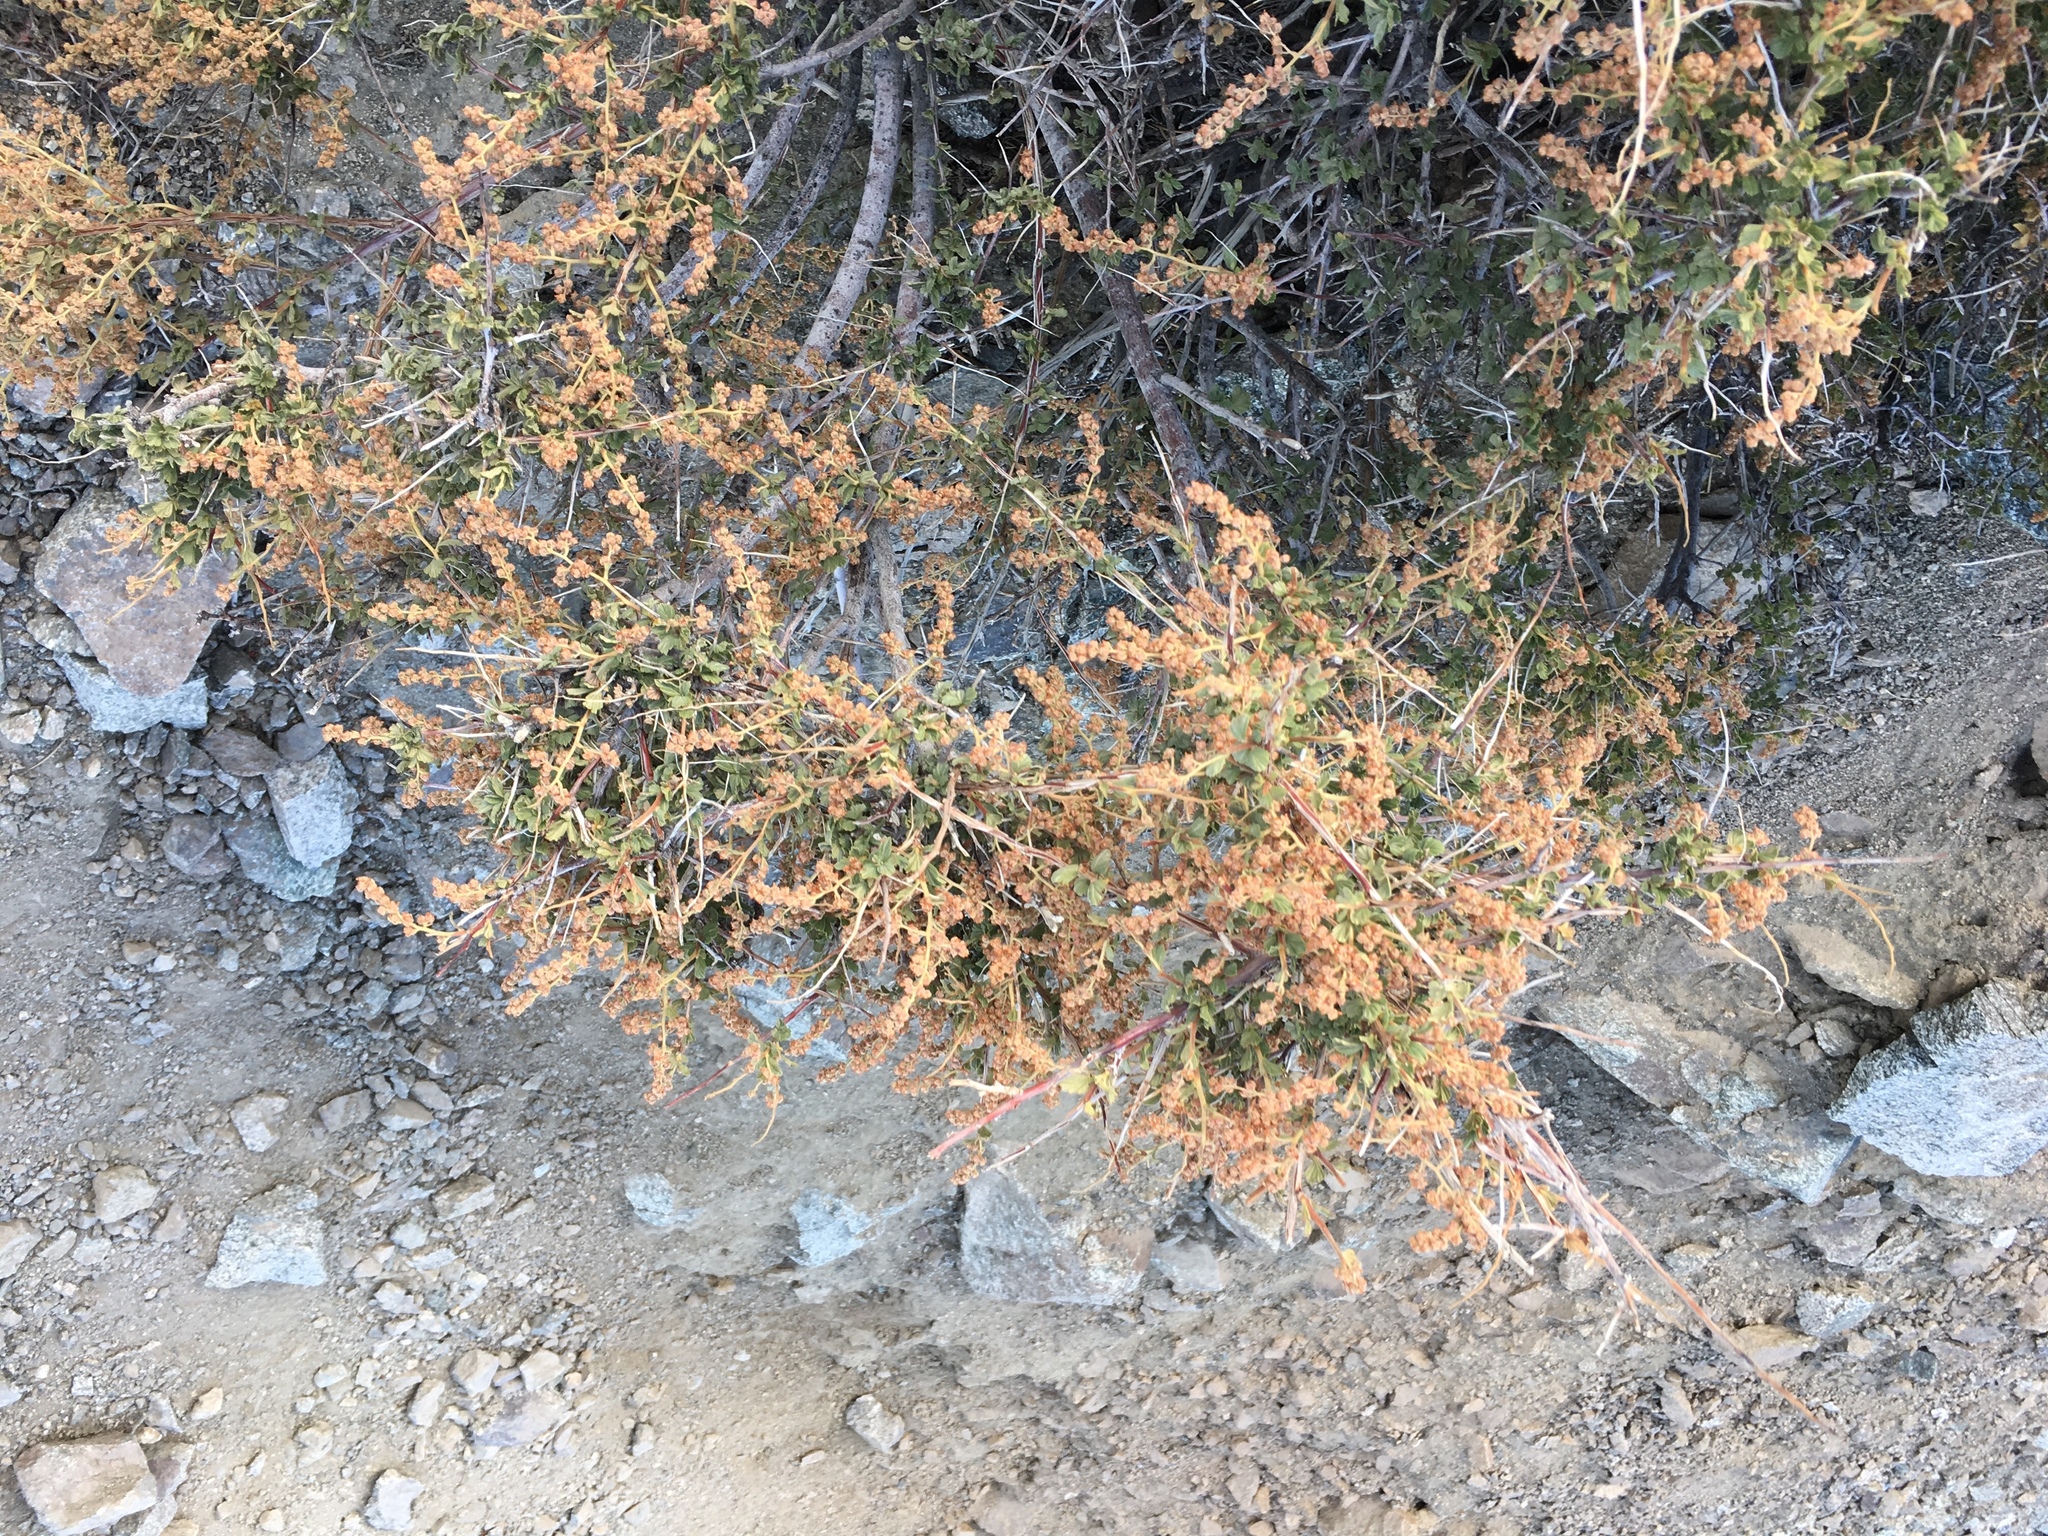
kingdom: Plantae
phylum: Tracheophyta
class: Magnoliopsida
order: Rosales
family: Rosaceae
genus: Holodiscus
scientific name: Holodiscus discolor
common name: Oceanspray
